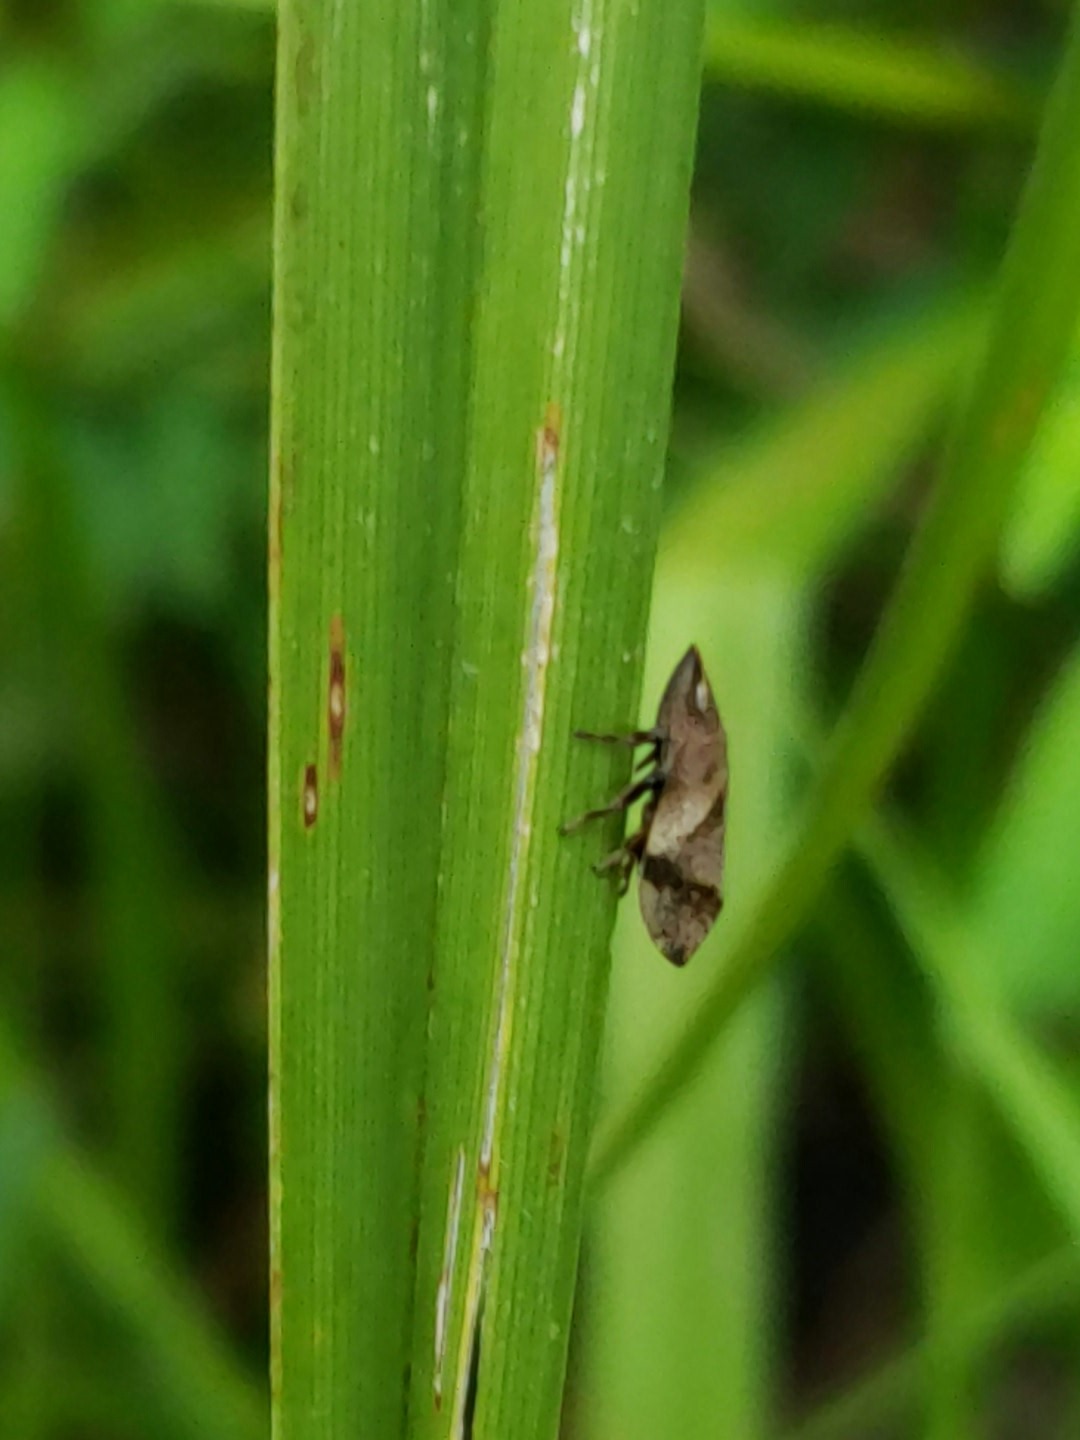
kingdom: Animalia
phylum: Arthropoda
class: Insecta
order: Hemiptera
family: Aphrophoridae
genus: Lepyronia
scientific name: Lepyronia quadrangularis
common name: Diamond-backed spittlebug
